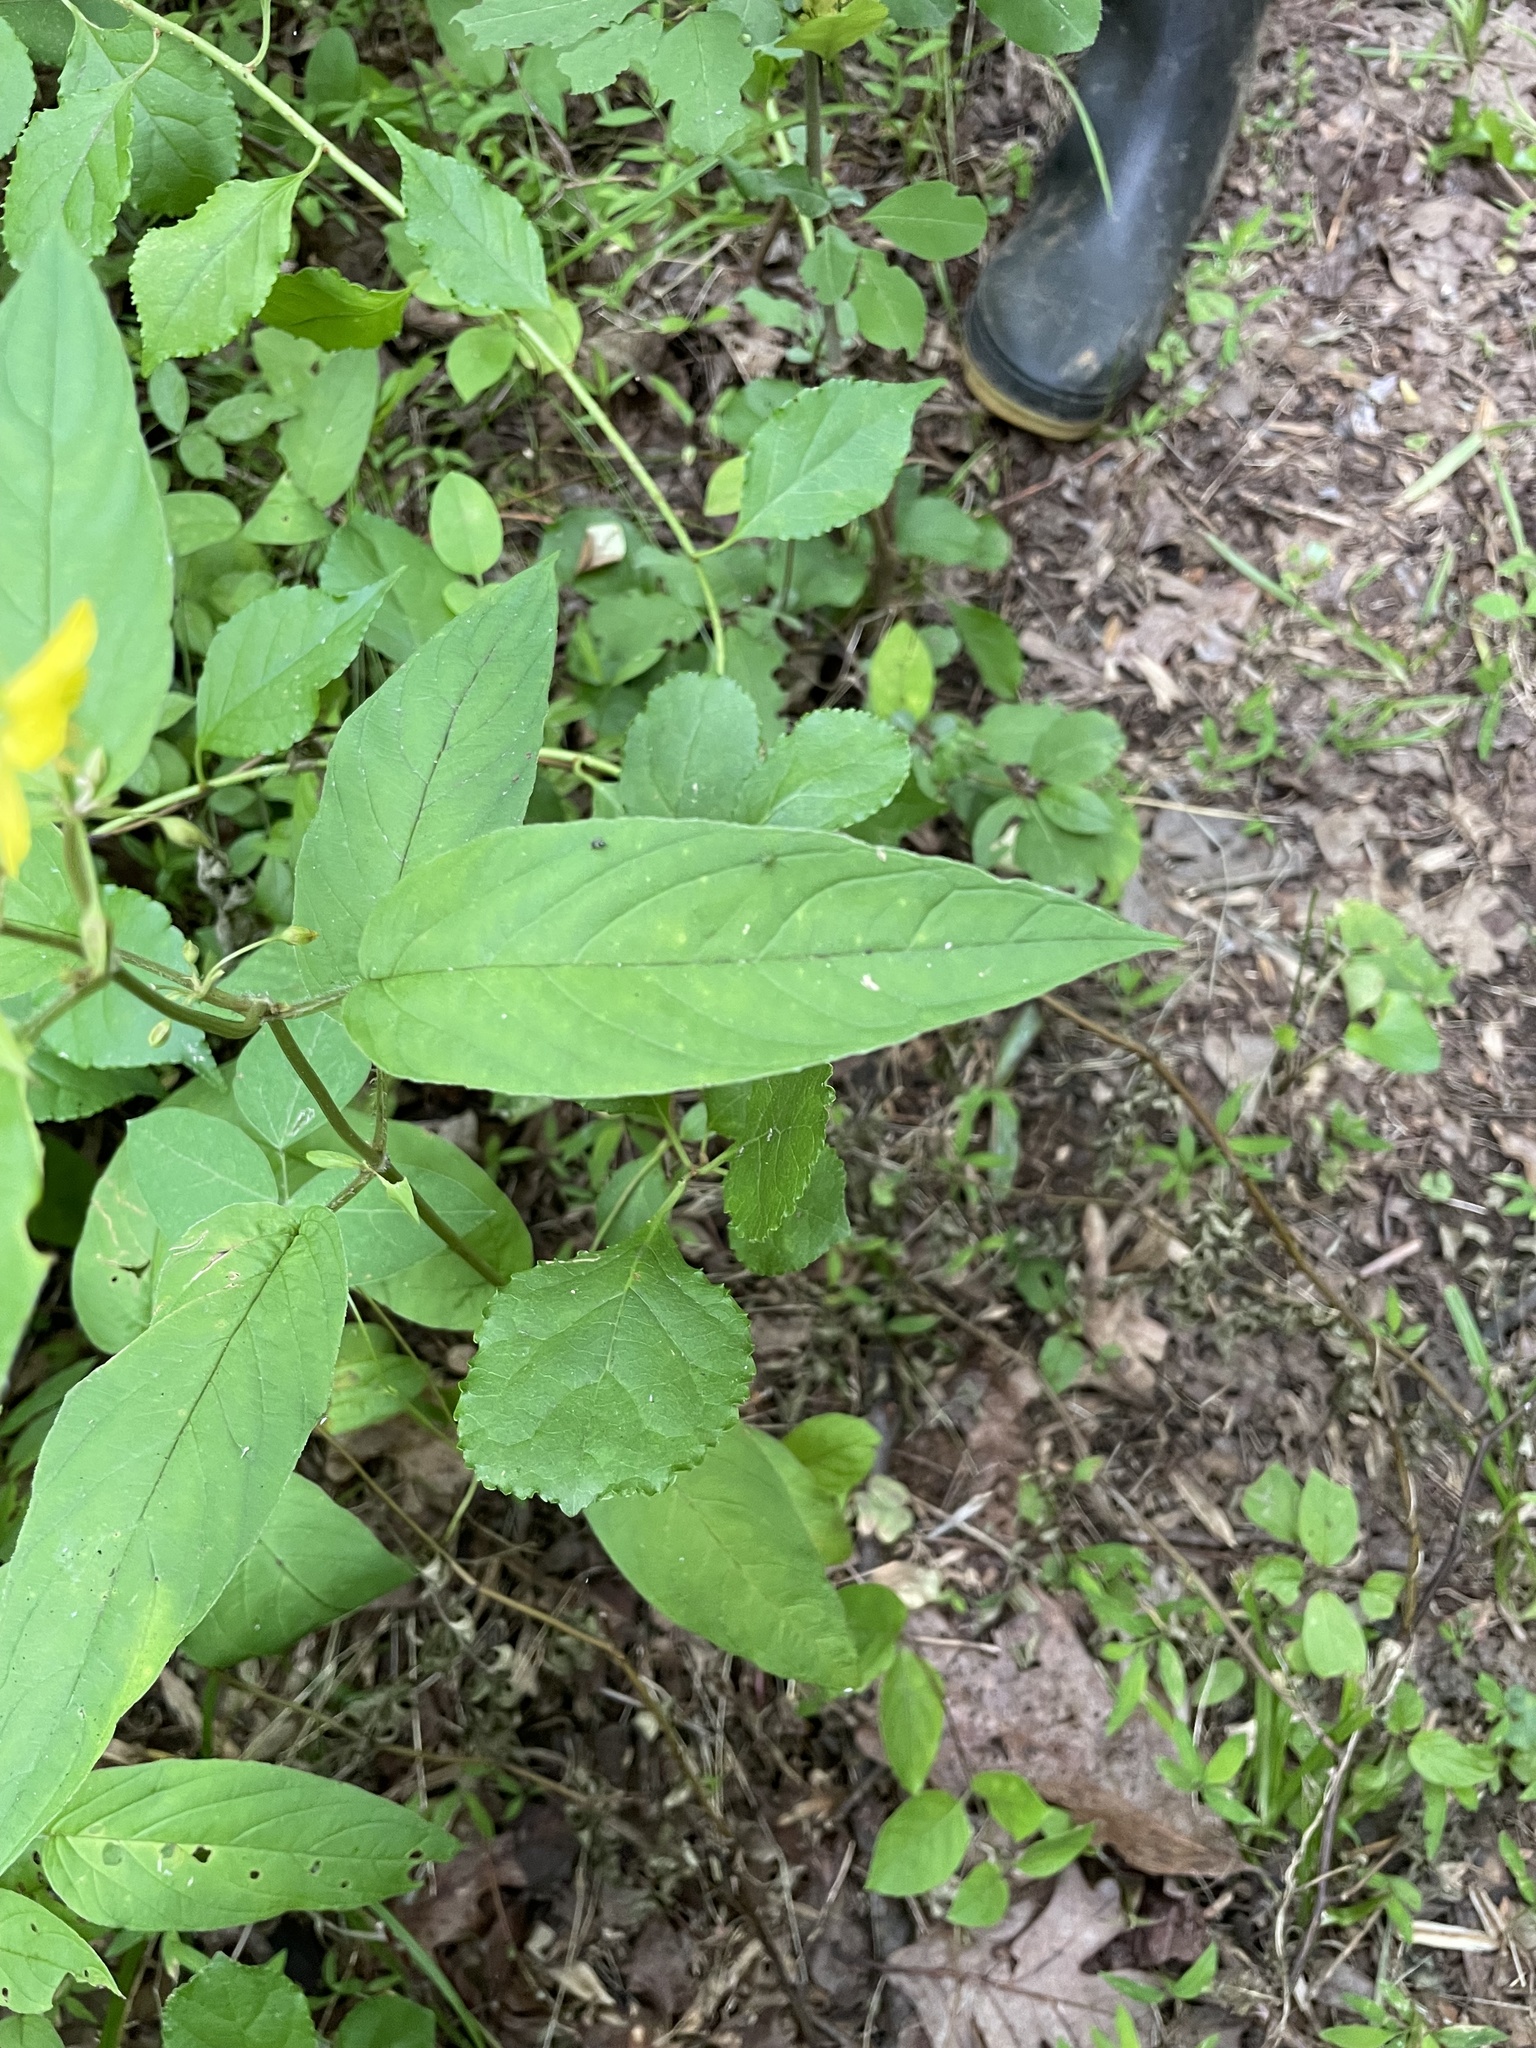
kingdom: Plantae
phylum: Tracheophyta
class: Magnoliopsida
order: Ericales
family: Primulaceae
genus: Lysimachia
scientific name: Lysimachia ciliata
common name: Fringed loosestrife
